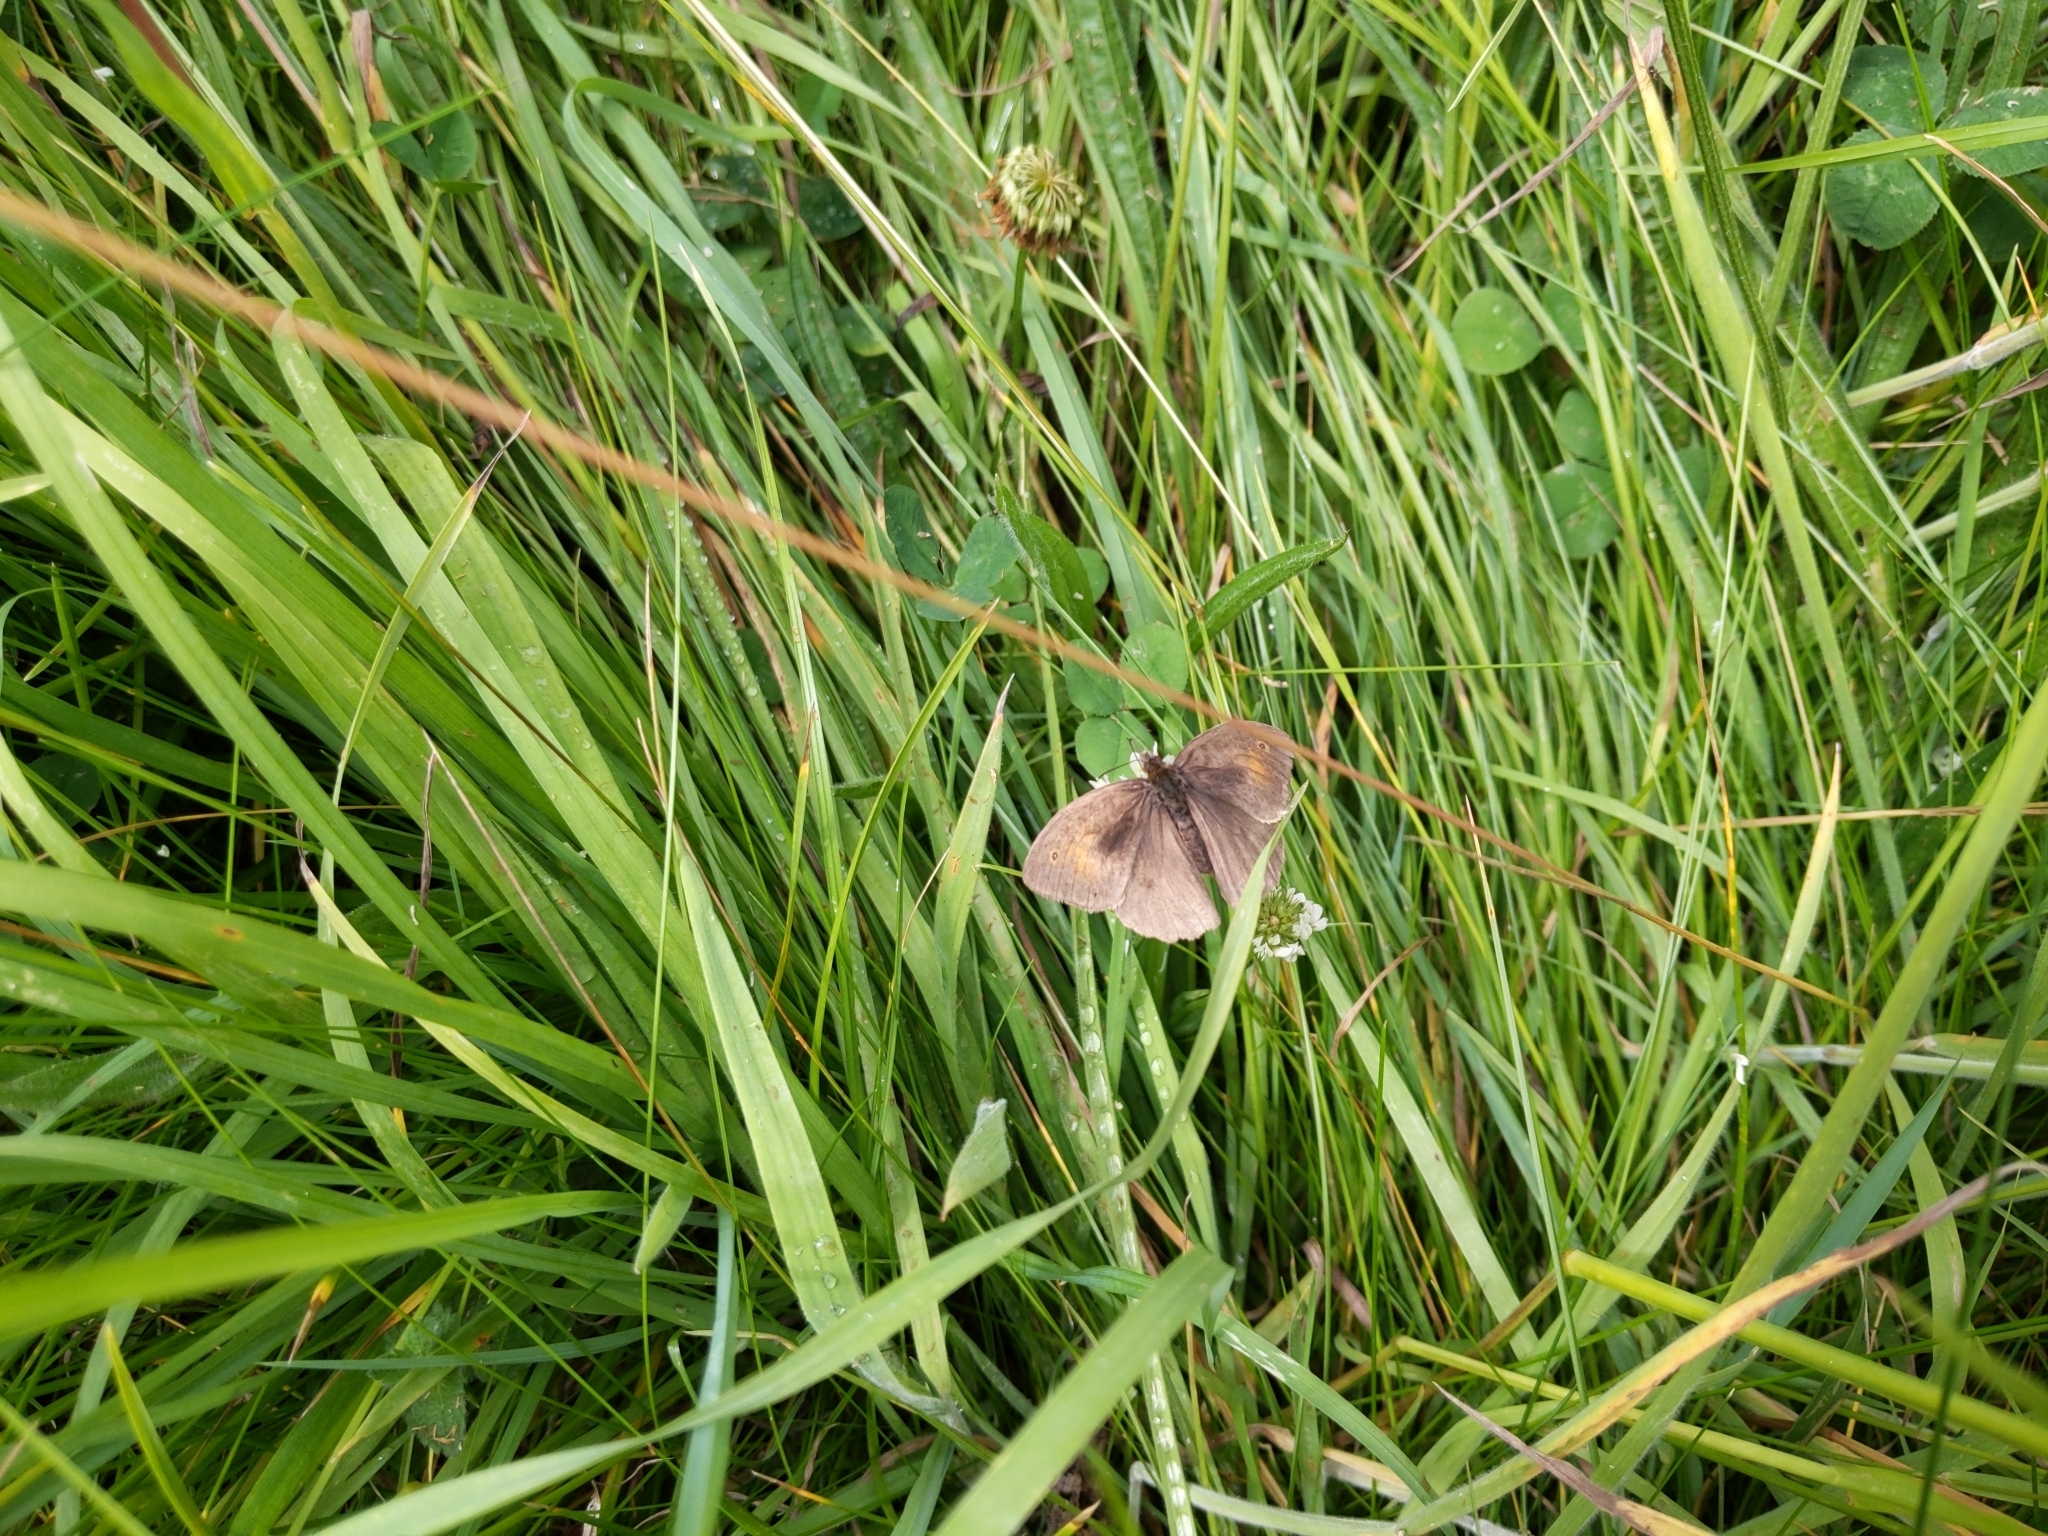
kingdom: Animalia
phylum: Arthropoda
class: Insecta
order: Lepidoptera
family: Nymphalidae
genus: Maniola
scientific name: Maniola jurtina
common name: Meadow brown
